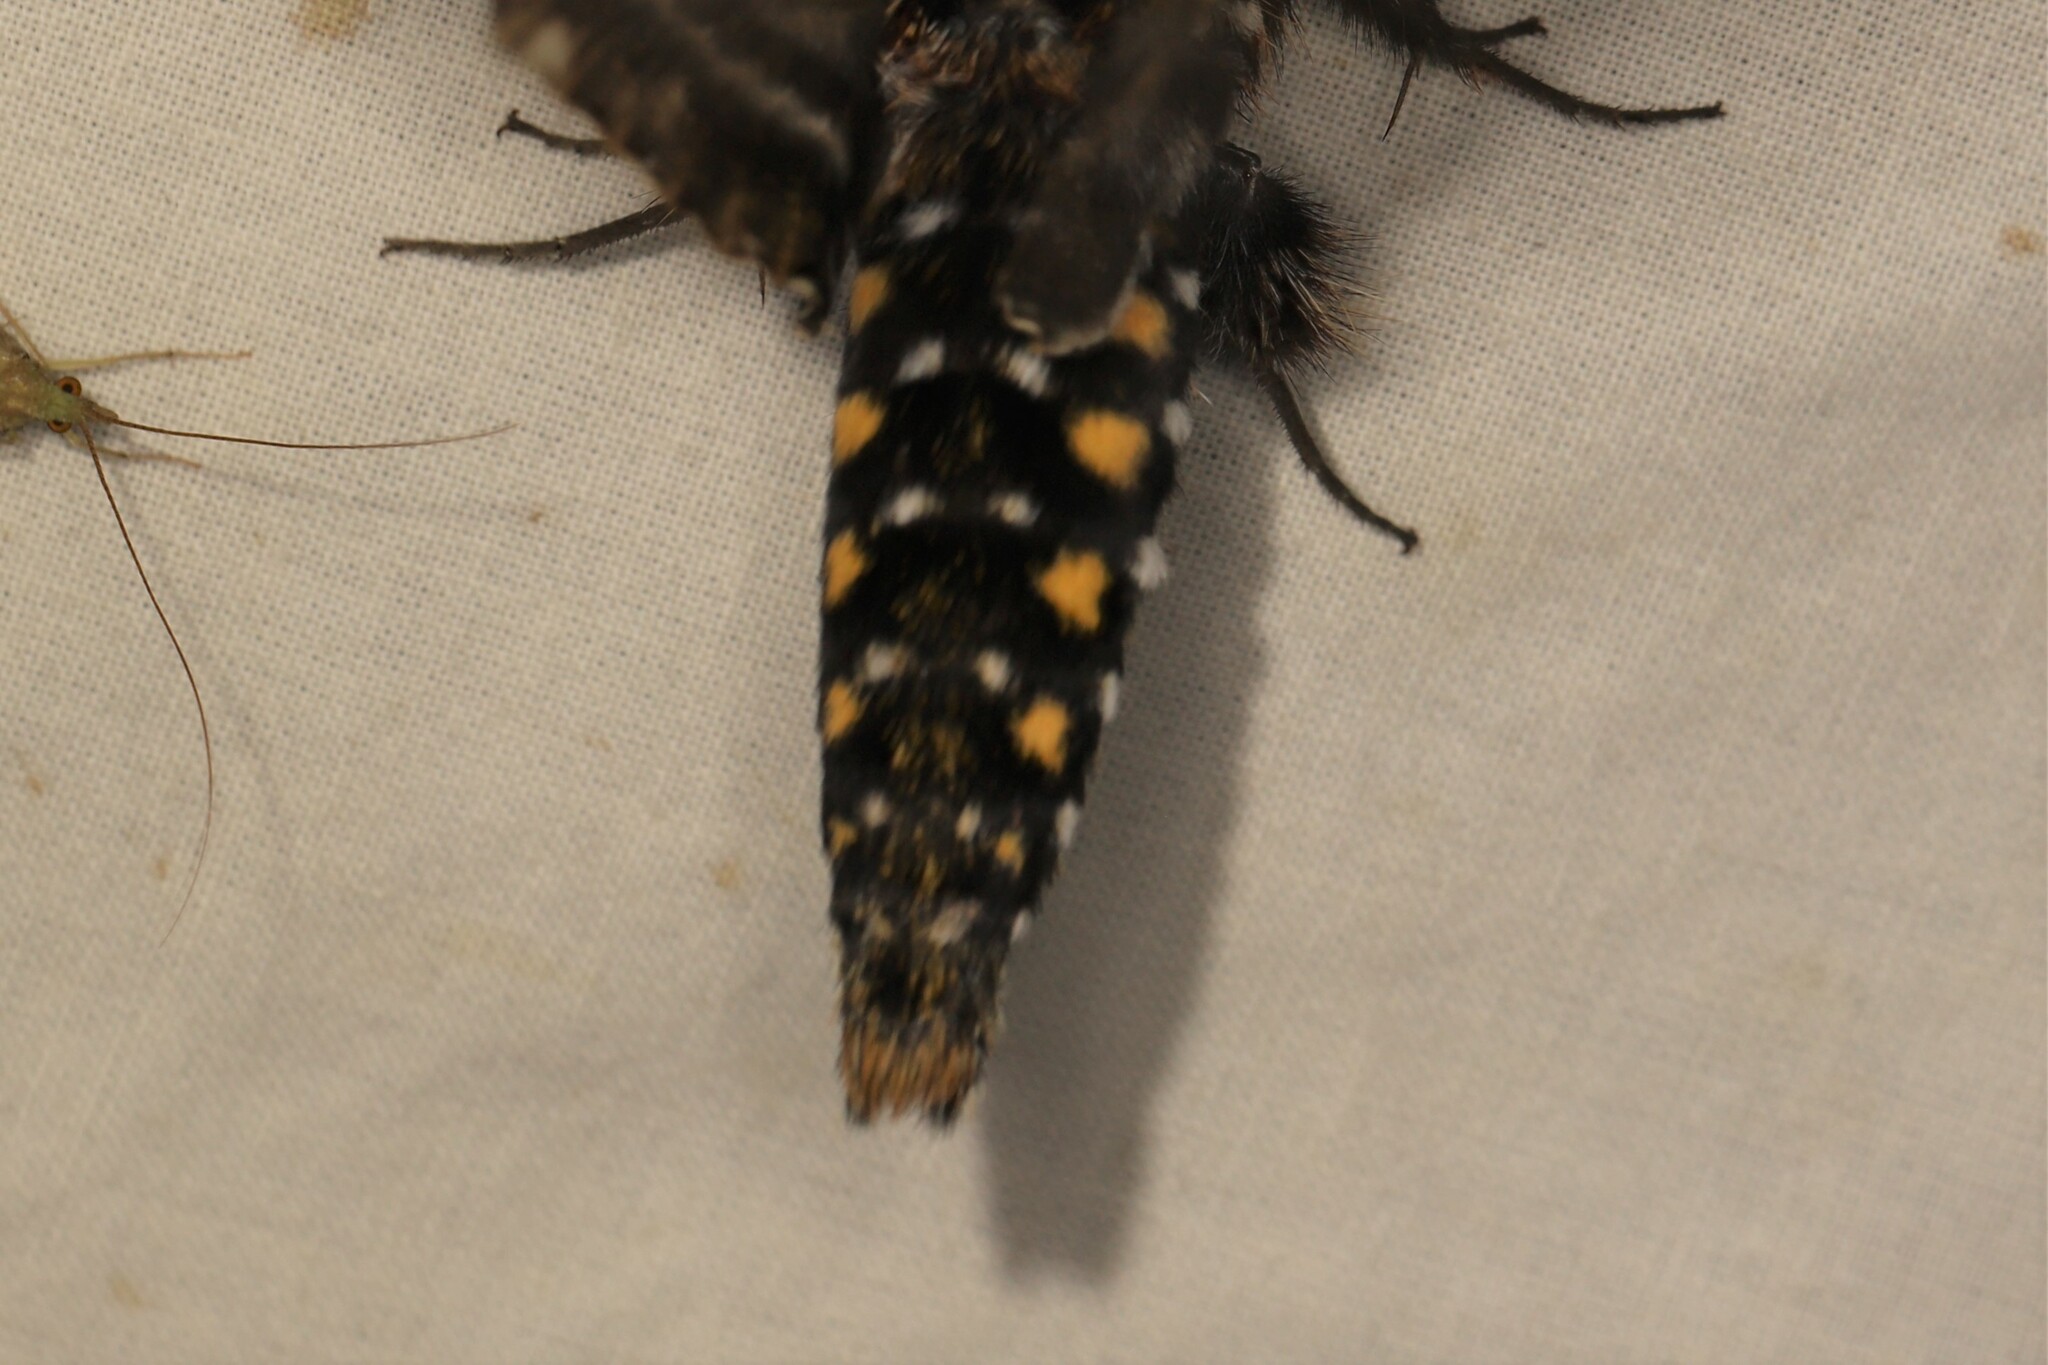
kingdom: Animalia
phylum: Arthropoda
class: Insecta
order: Lepidoptera
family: Sphingidae
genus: Euryglottis
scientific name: Euryglottis aper
